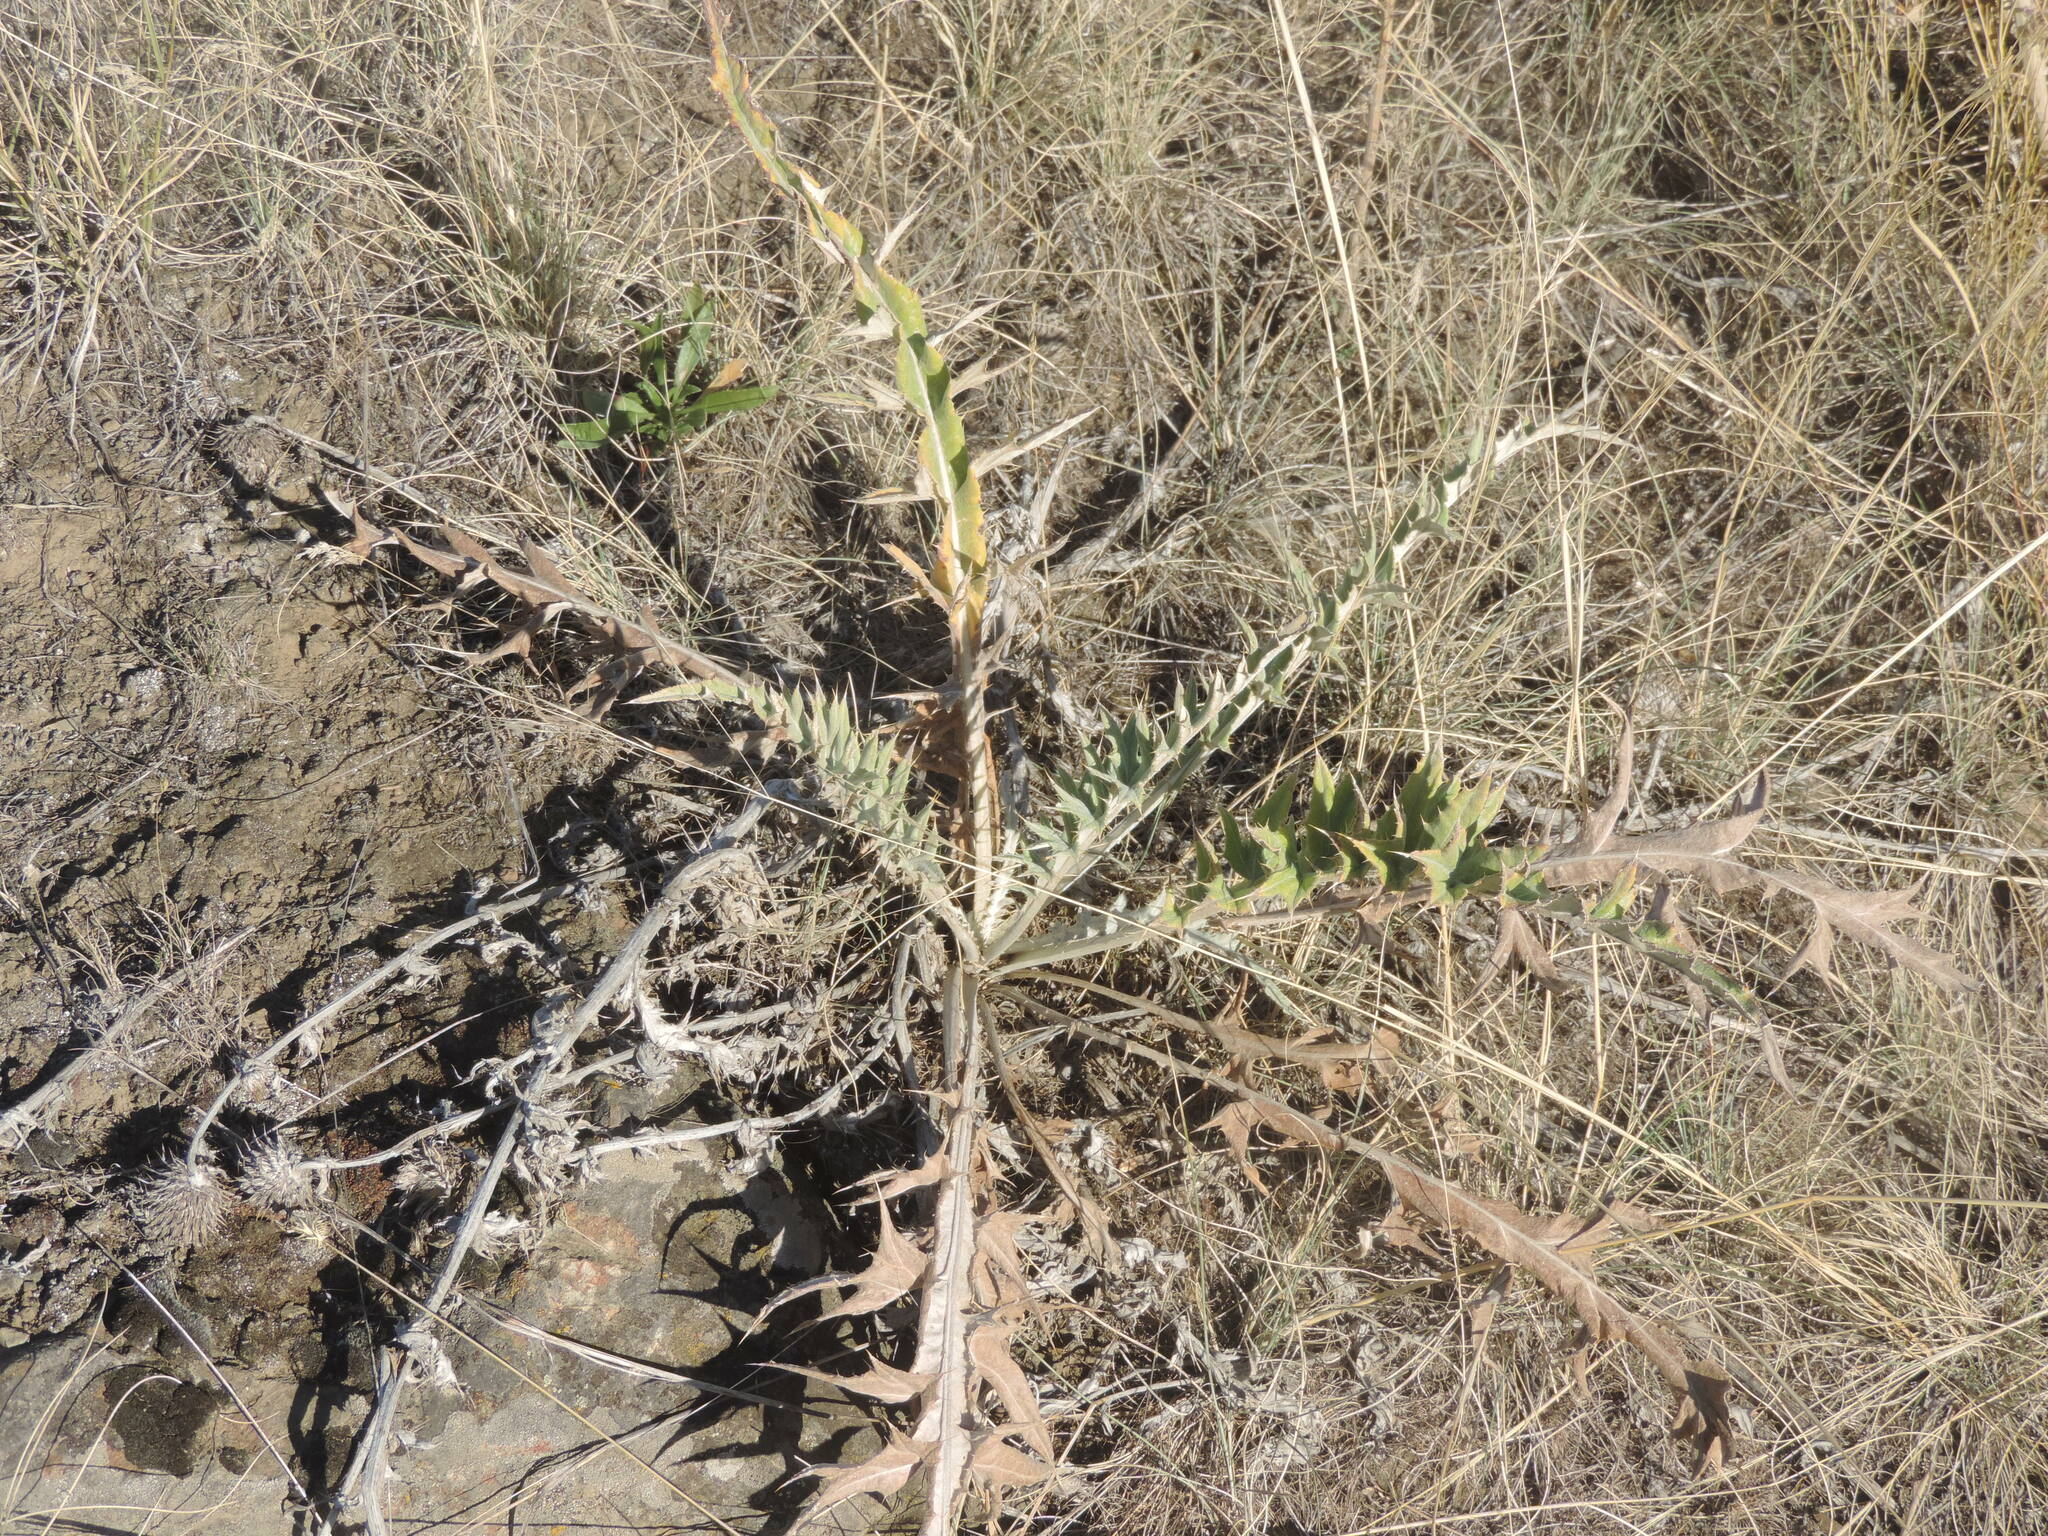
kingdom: Plantae
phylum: Tracheophyta
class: Magnoliopsida
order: Asterales
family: Asteraceae
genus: Cirsium
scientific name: Cirsium undulatum
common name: Pasture thistle
